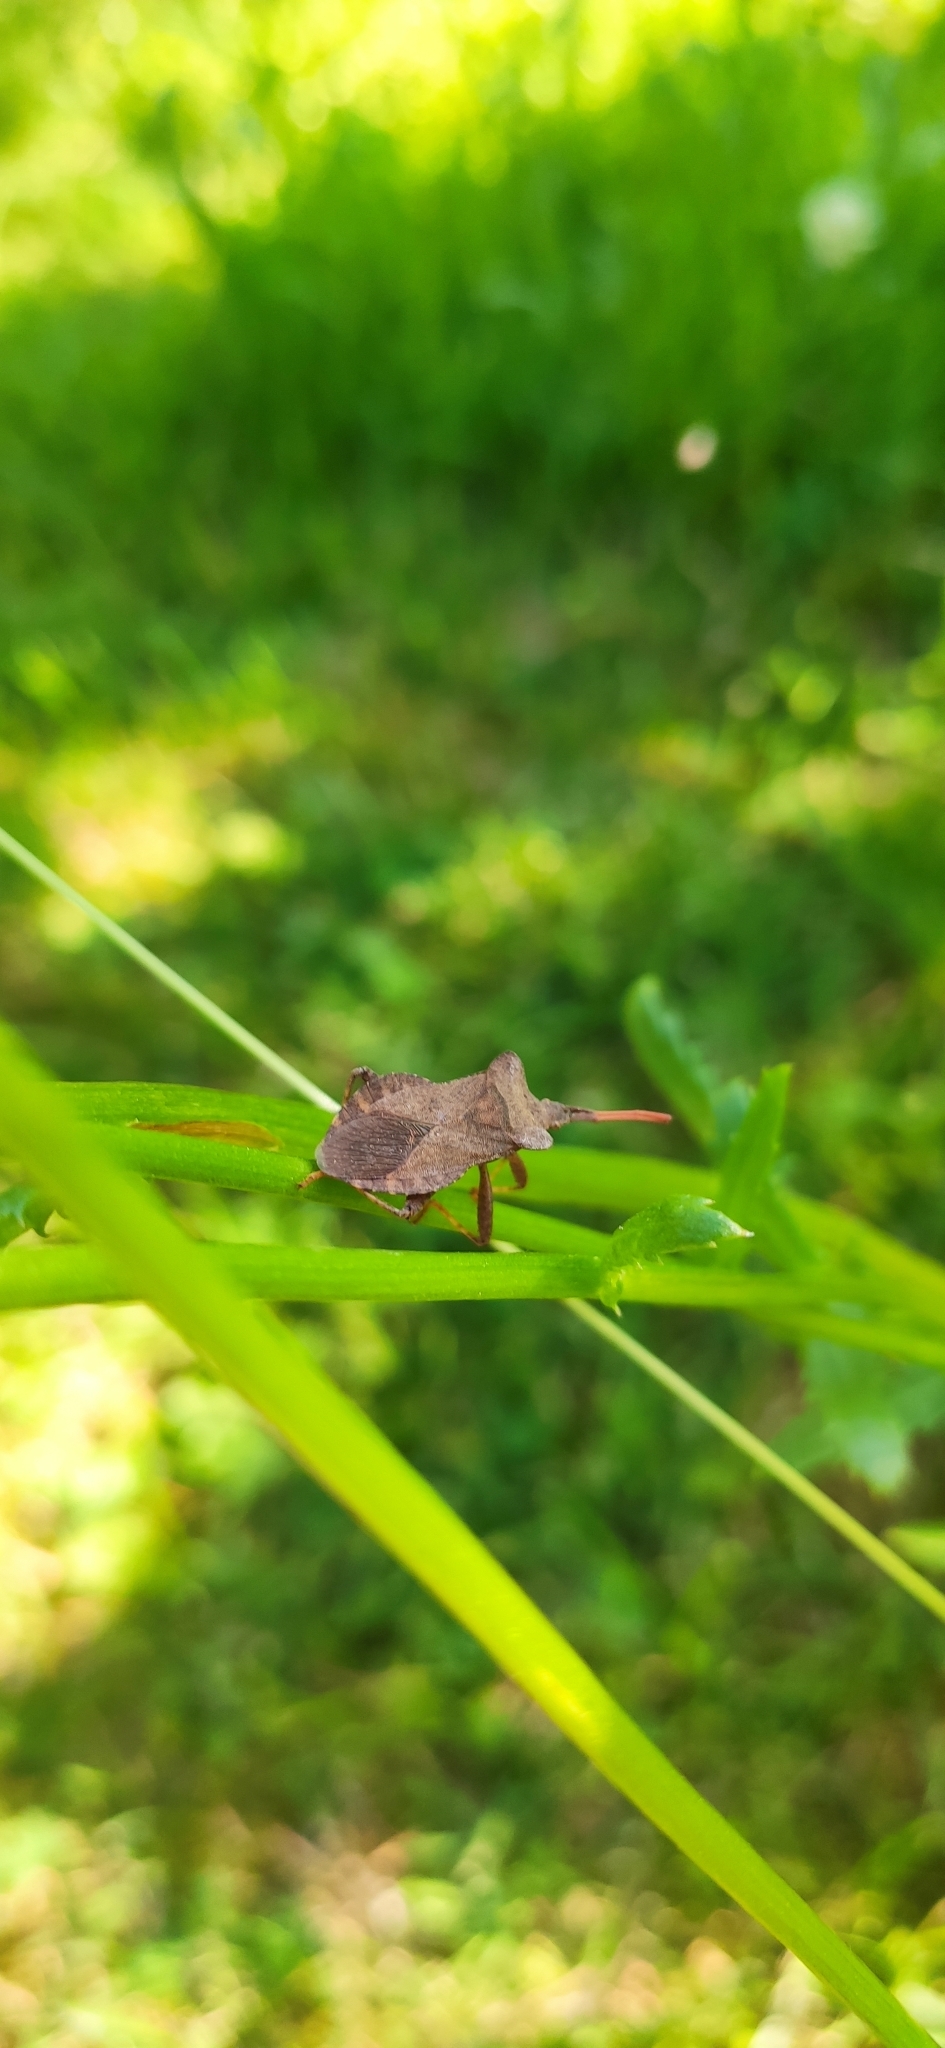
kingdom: Animalia
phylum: Arthropoda
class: Insecta
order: Hemiptera
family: Coreidae
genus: Coreus
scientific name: Coreus marginatus
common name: Dock bug
